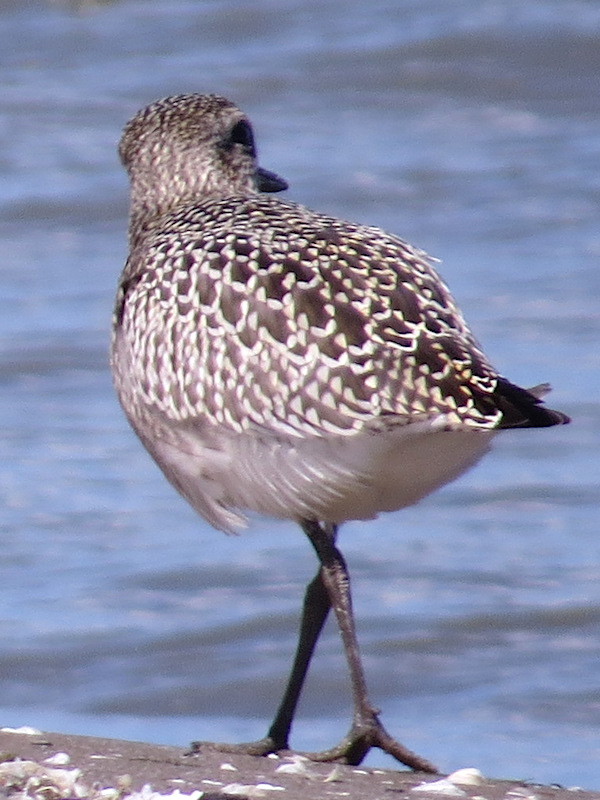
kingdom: Animalia
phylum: Chordata
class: Aves
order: Charadriiformes
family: Charadriidae
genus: Pluvialis
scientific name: Pluvialis squatarola
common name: Grey plover
